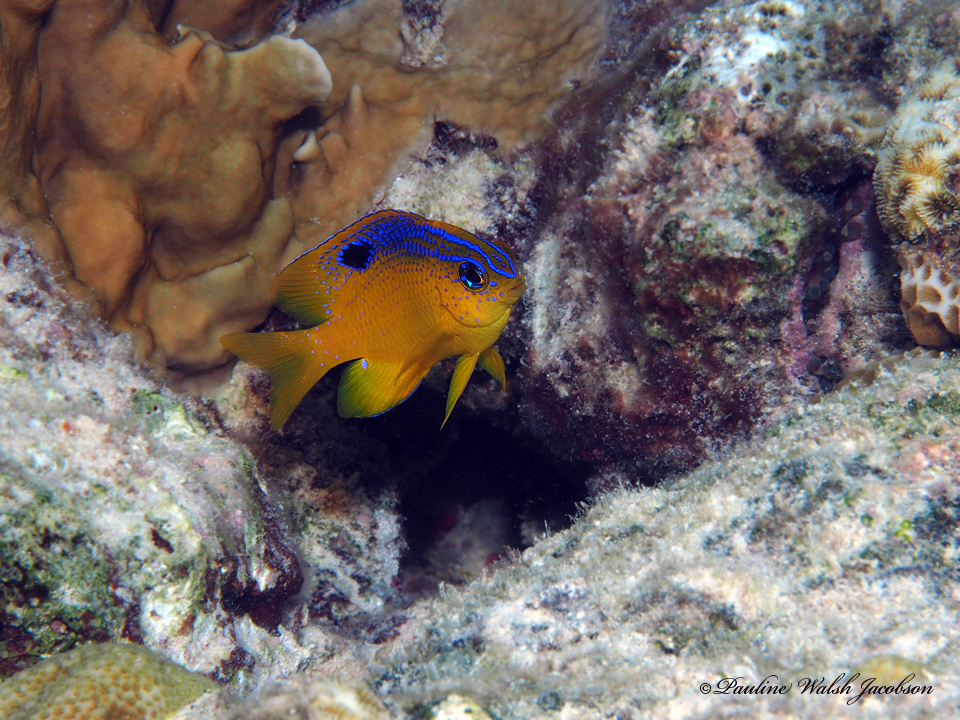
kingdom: Animalia
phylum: Chordata
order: Perciformes
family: Pomacentridae
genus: Stegastes
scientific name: Stegastes diencaeus
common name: Longfin damselfish
